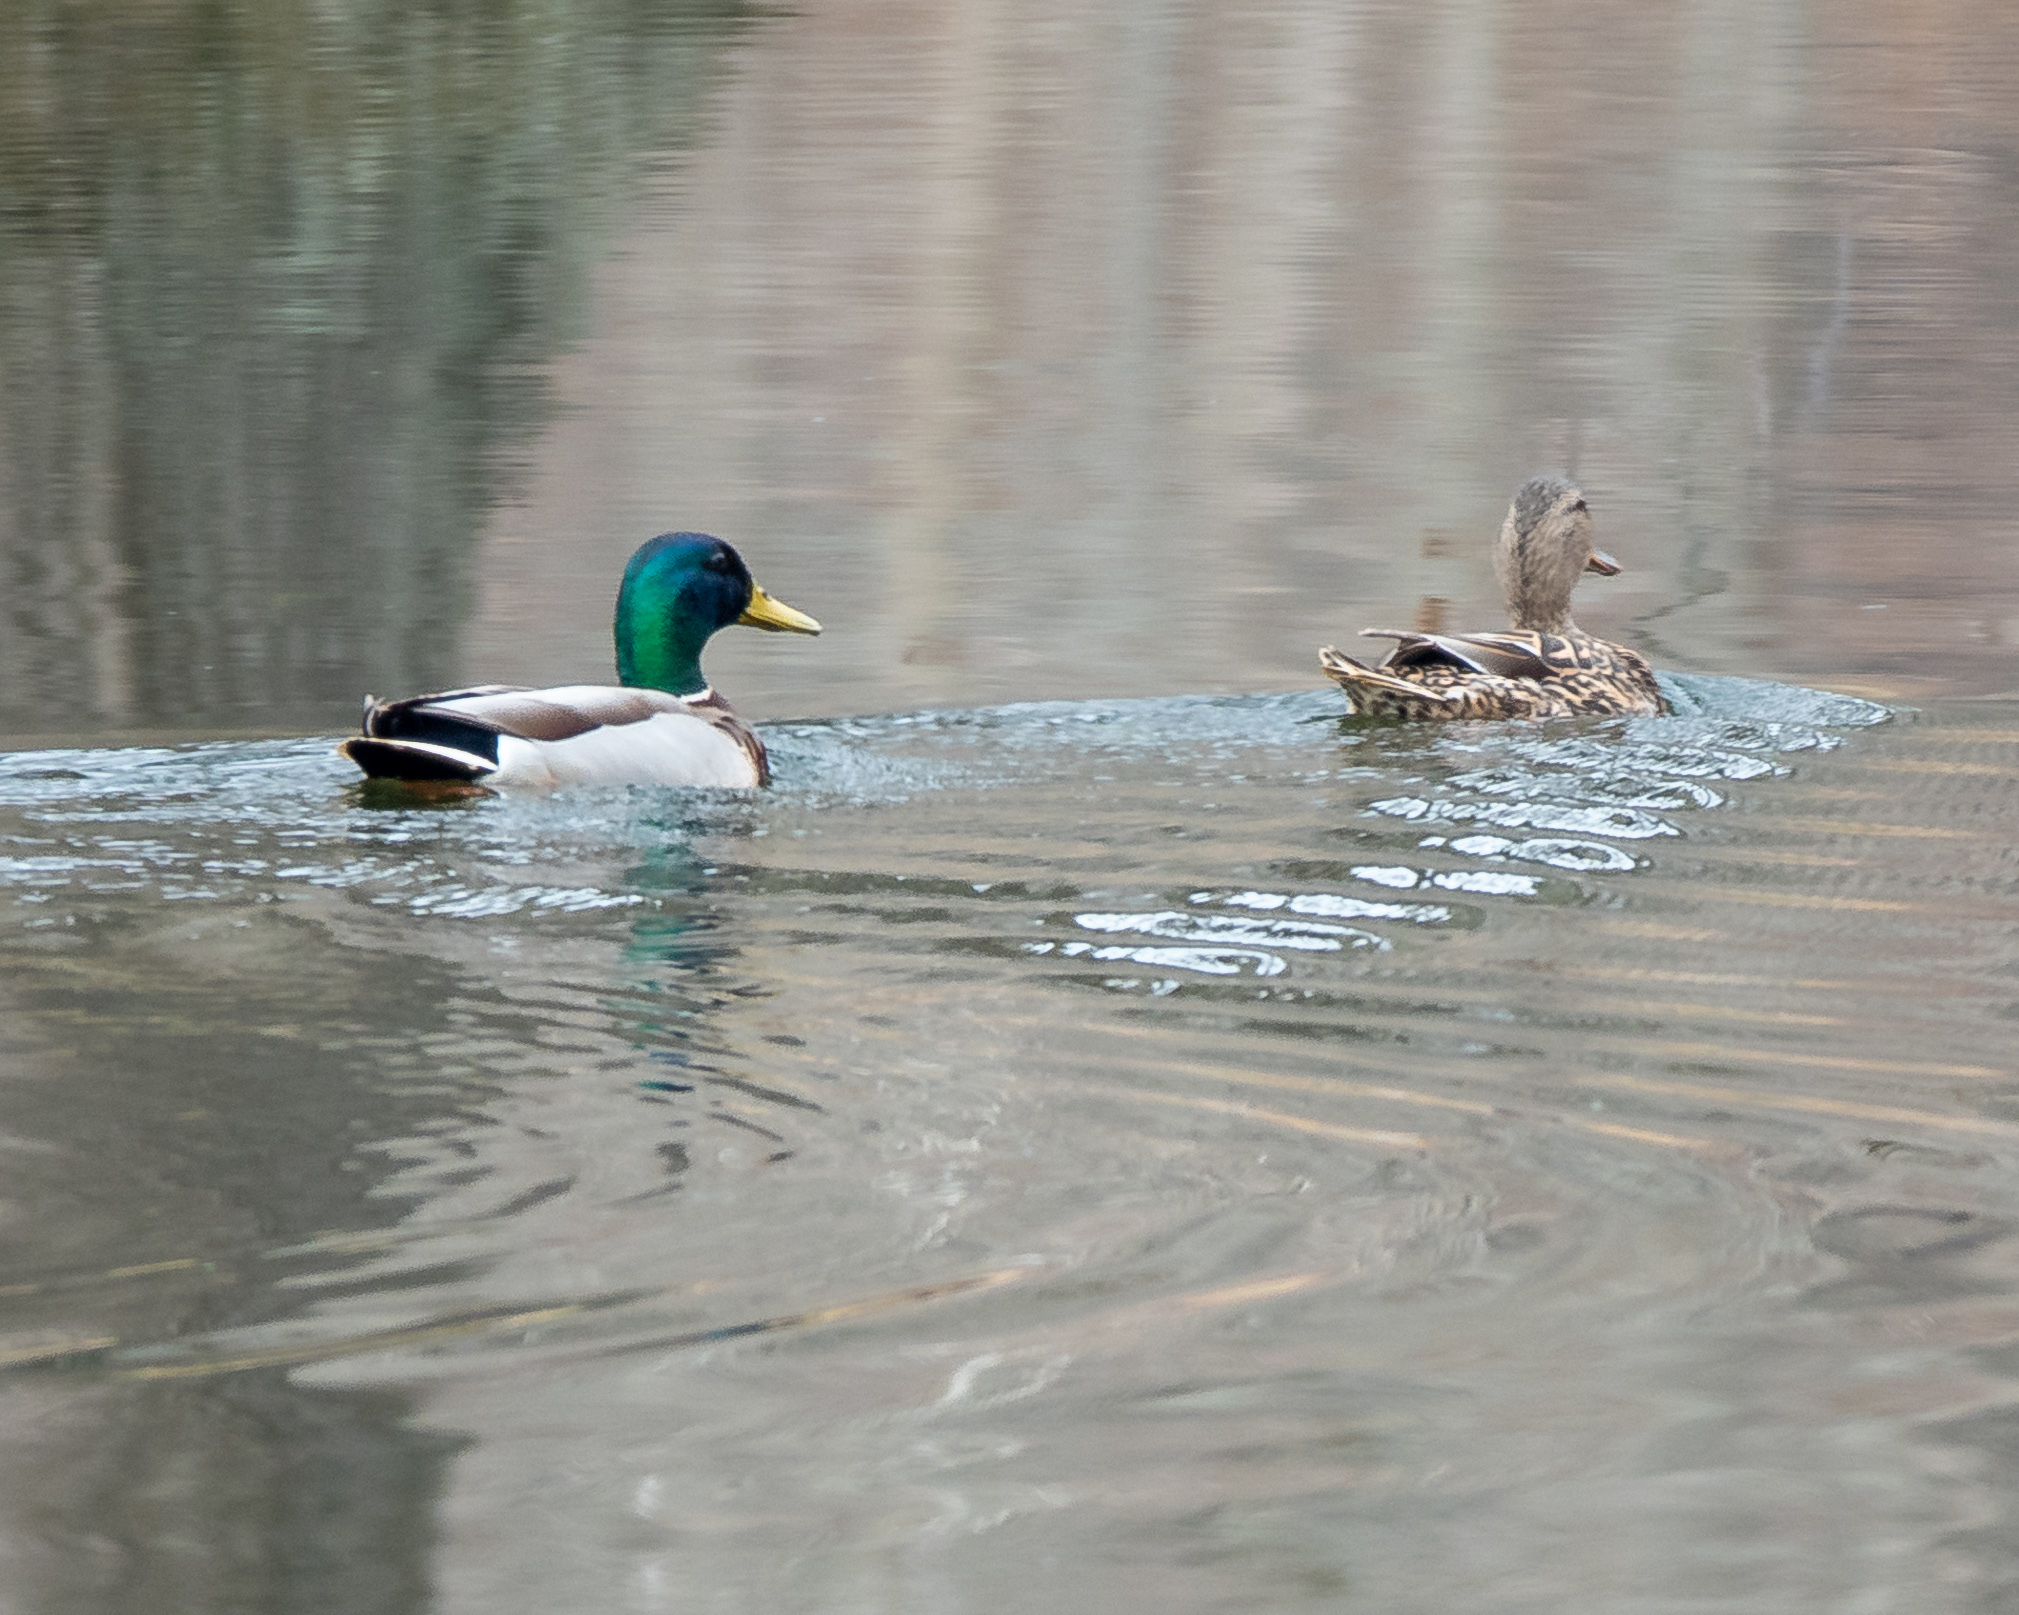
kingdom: Animalia
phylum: Chordata
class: Aves
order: Anseriformes
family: Anatidae
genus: Anas
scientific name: Anas platyrhynchos
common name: Mallard
